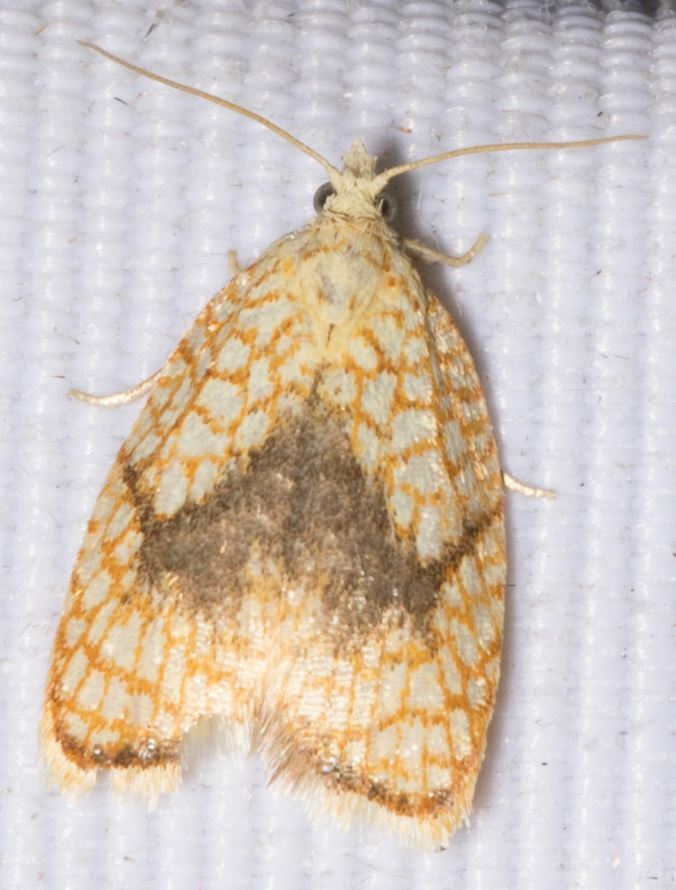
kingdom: Animalia
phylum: Arthropoda
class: Insecta
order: Lepidoptera
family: Tortricidae
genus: Acleris
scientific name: Acleris forsskaleana
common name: Maple button
